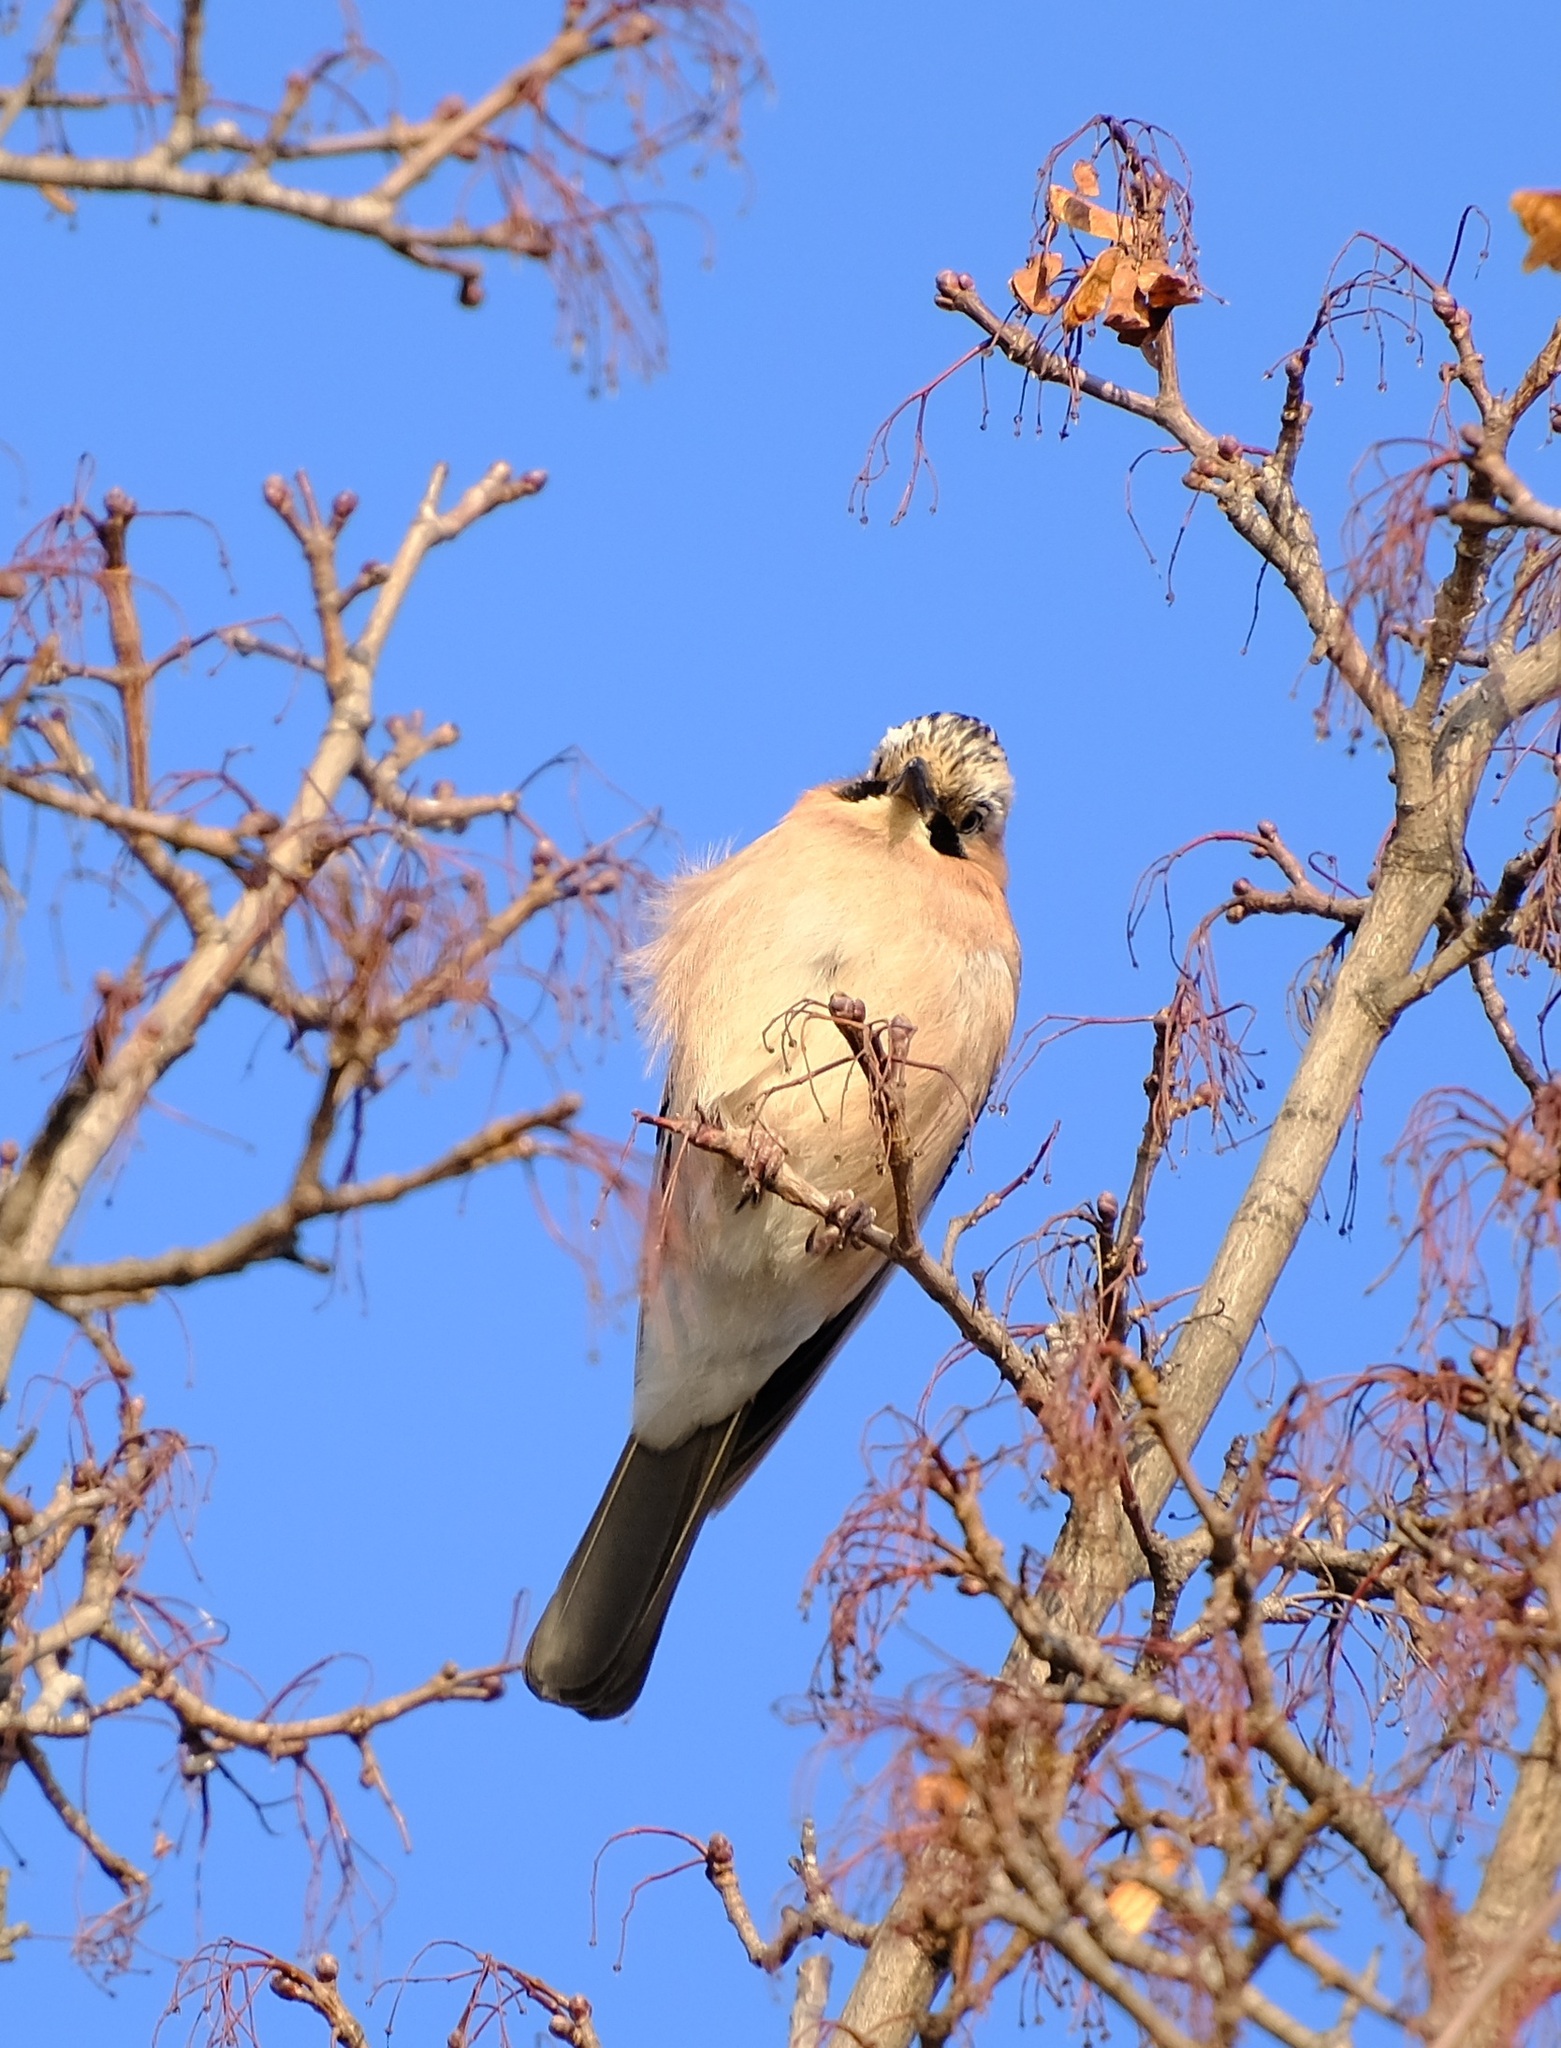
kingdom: Animalia
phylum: Chordata
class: Aves
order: Passeriformes
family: Corvidae
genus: Garrulus
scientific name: Garrulus glandarius
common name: Eurasian jay
